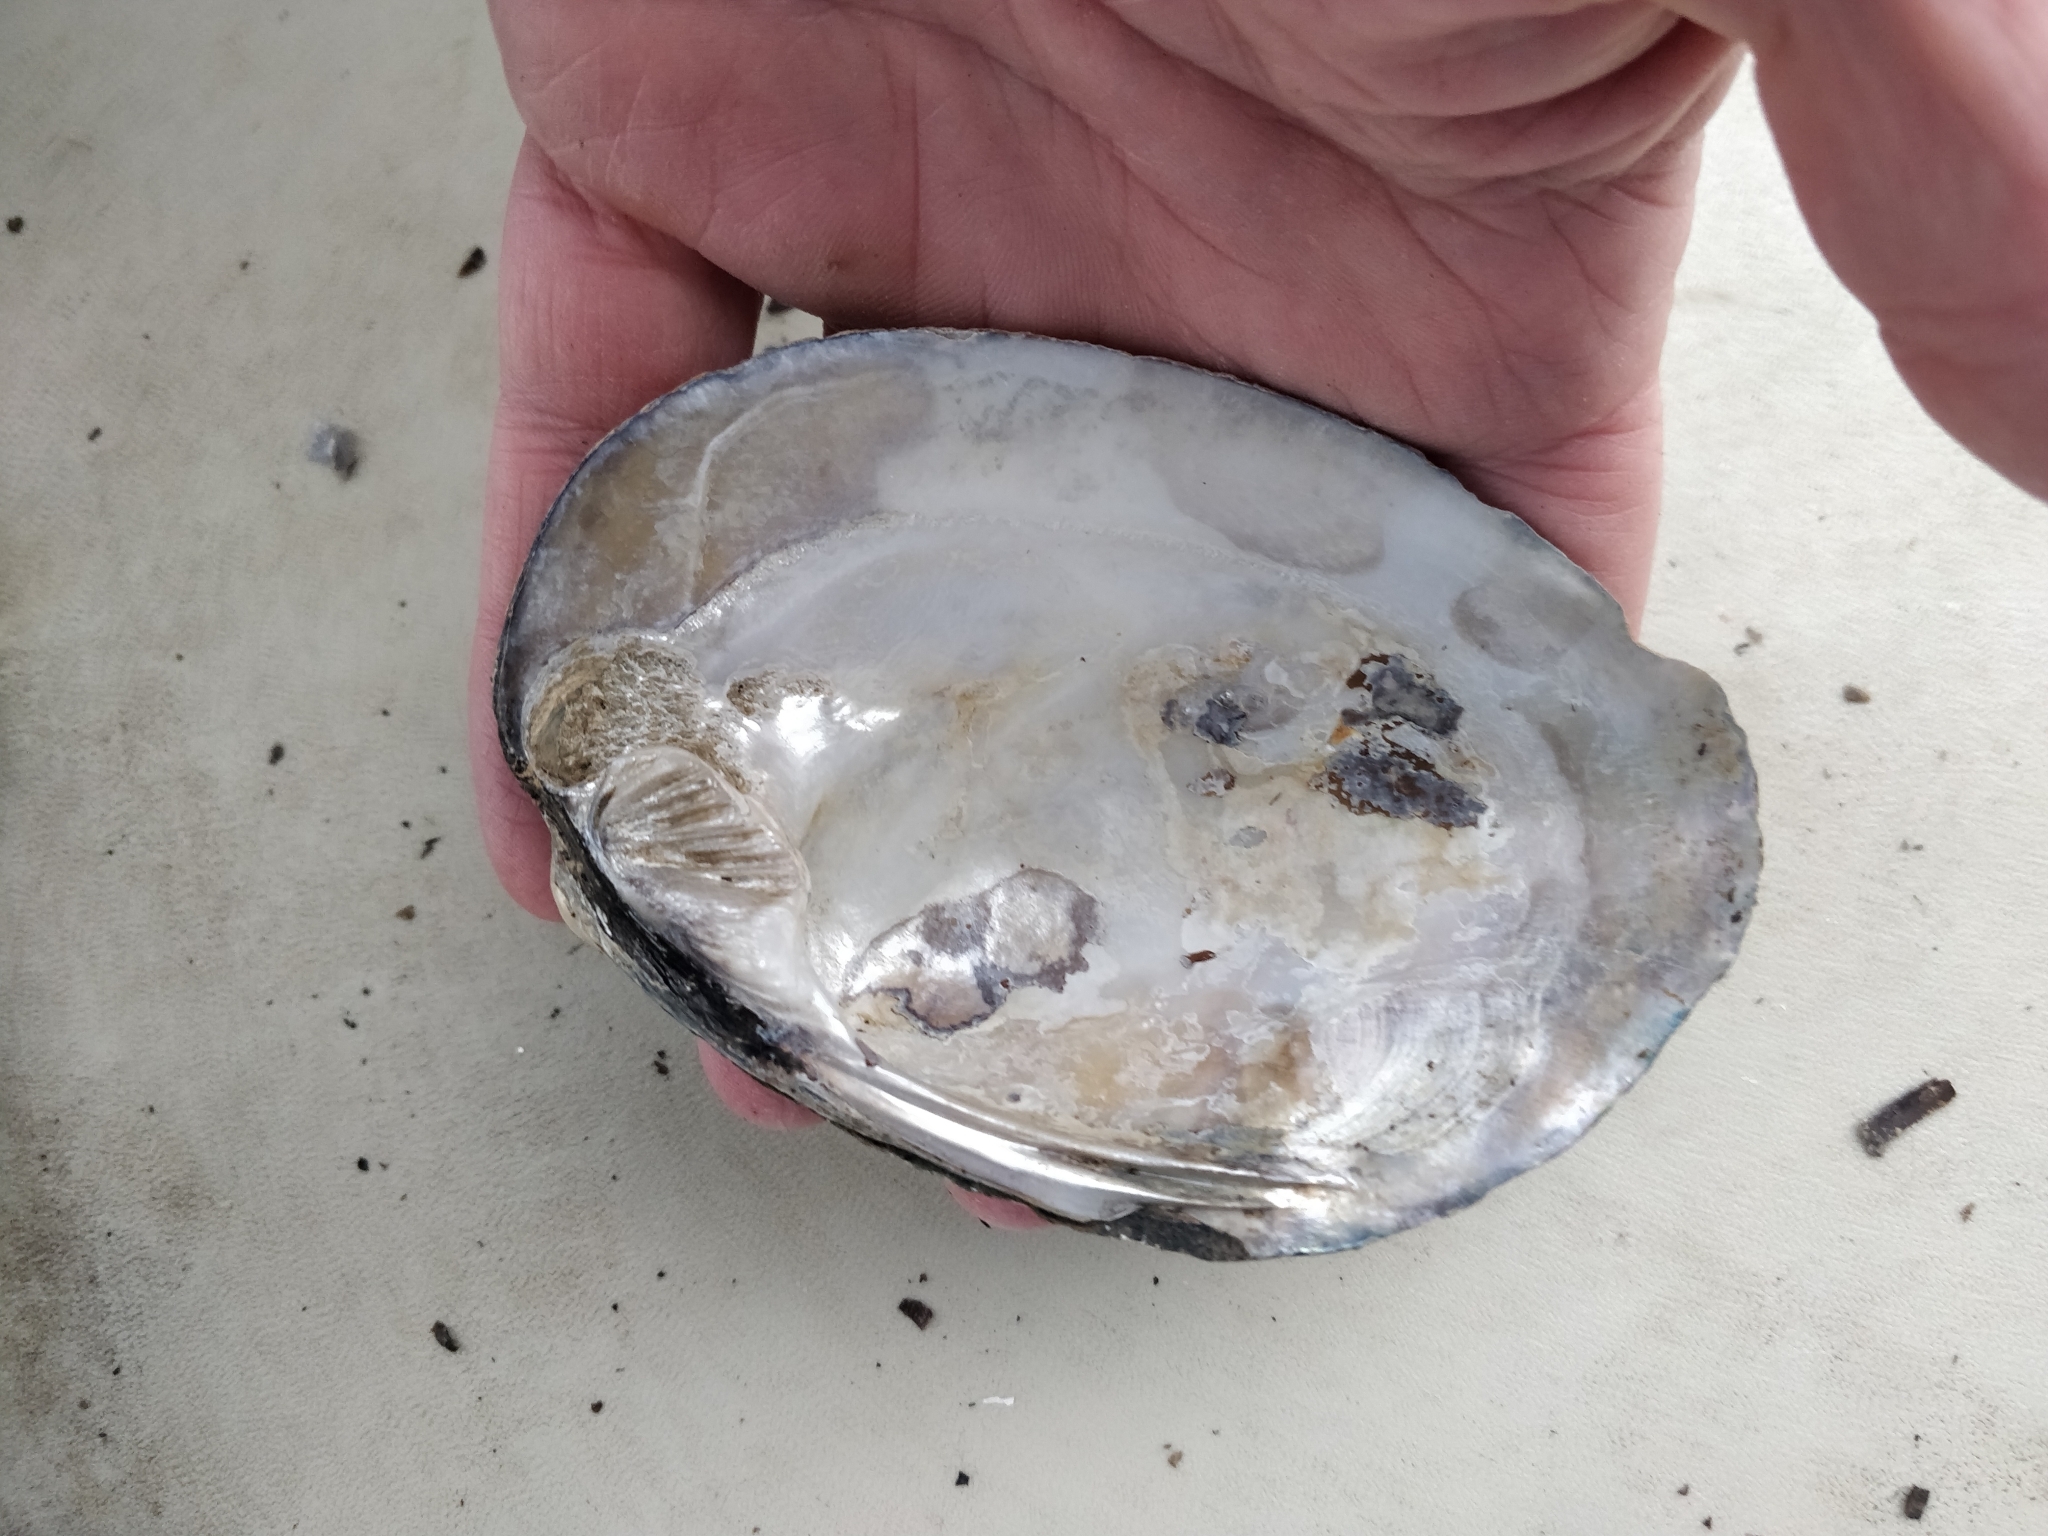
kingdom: Animalia
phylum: Mollusca
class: Bivalvia
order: Unionida
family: Unionidae
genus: Amblema
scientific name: Amblema plicata
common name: Threeridge
